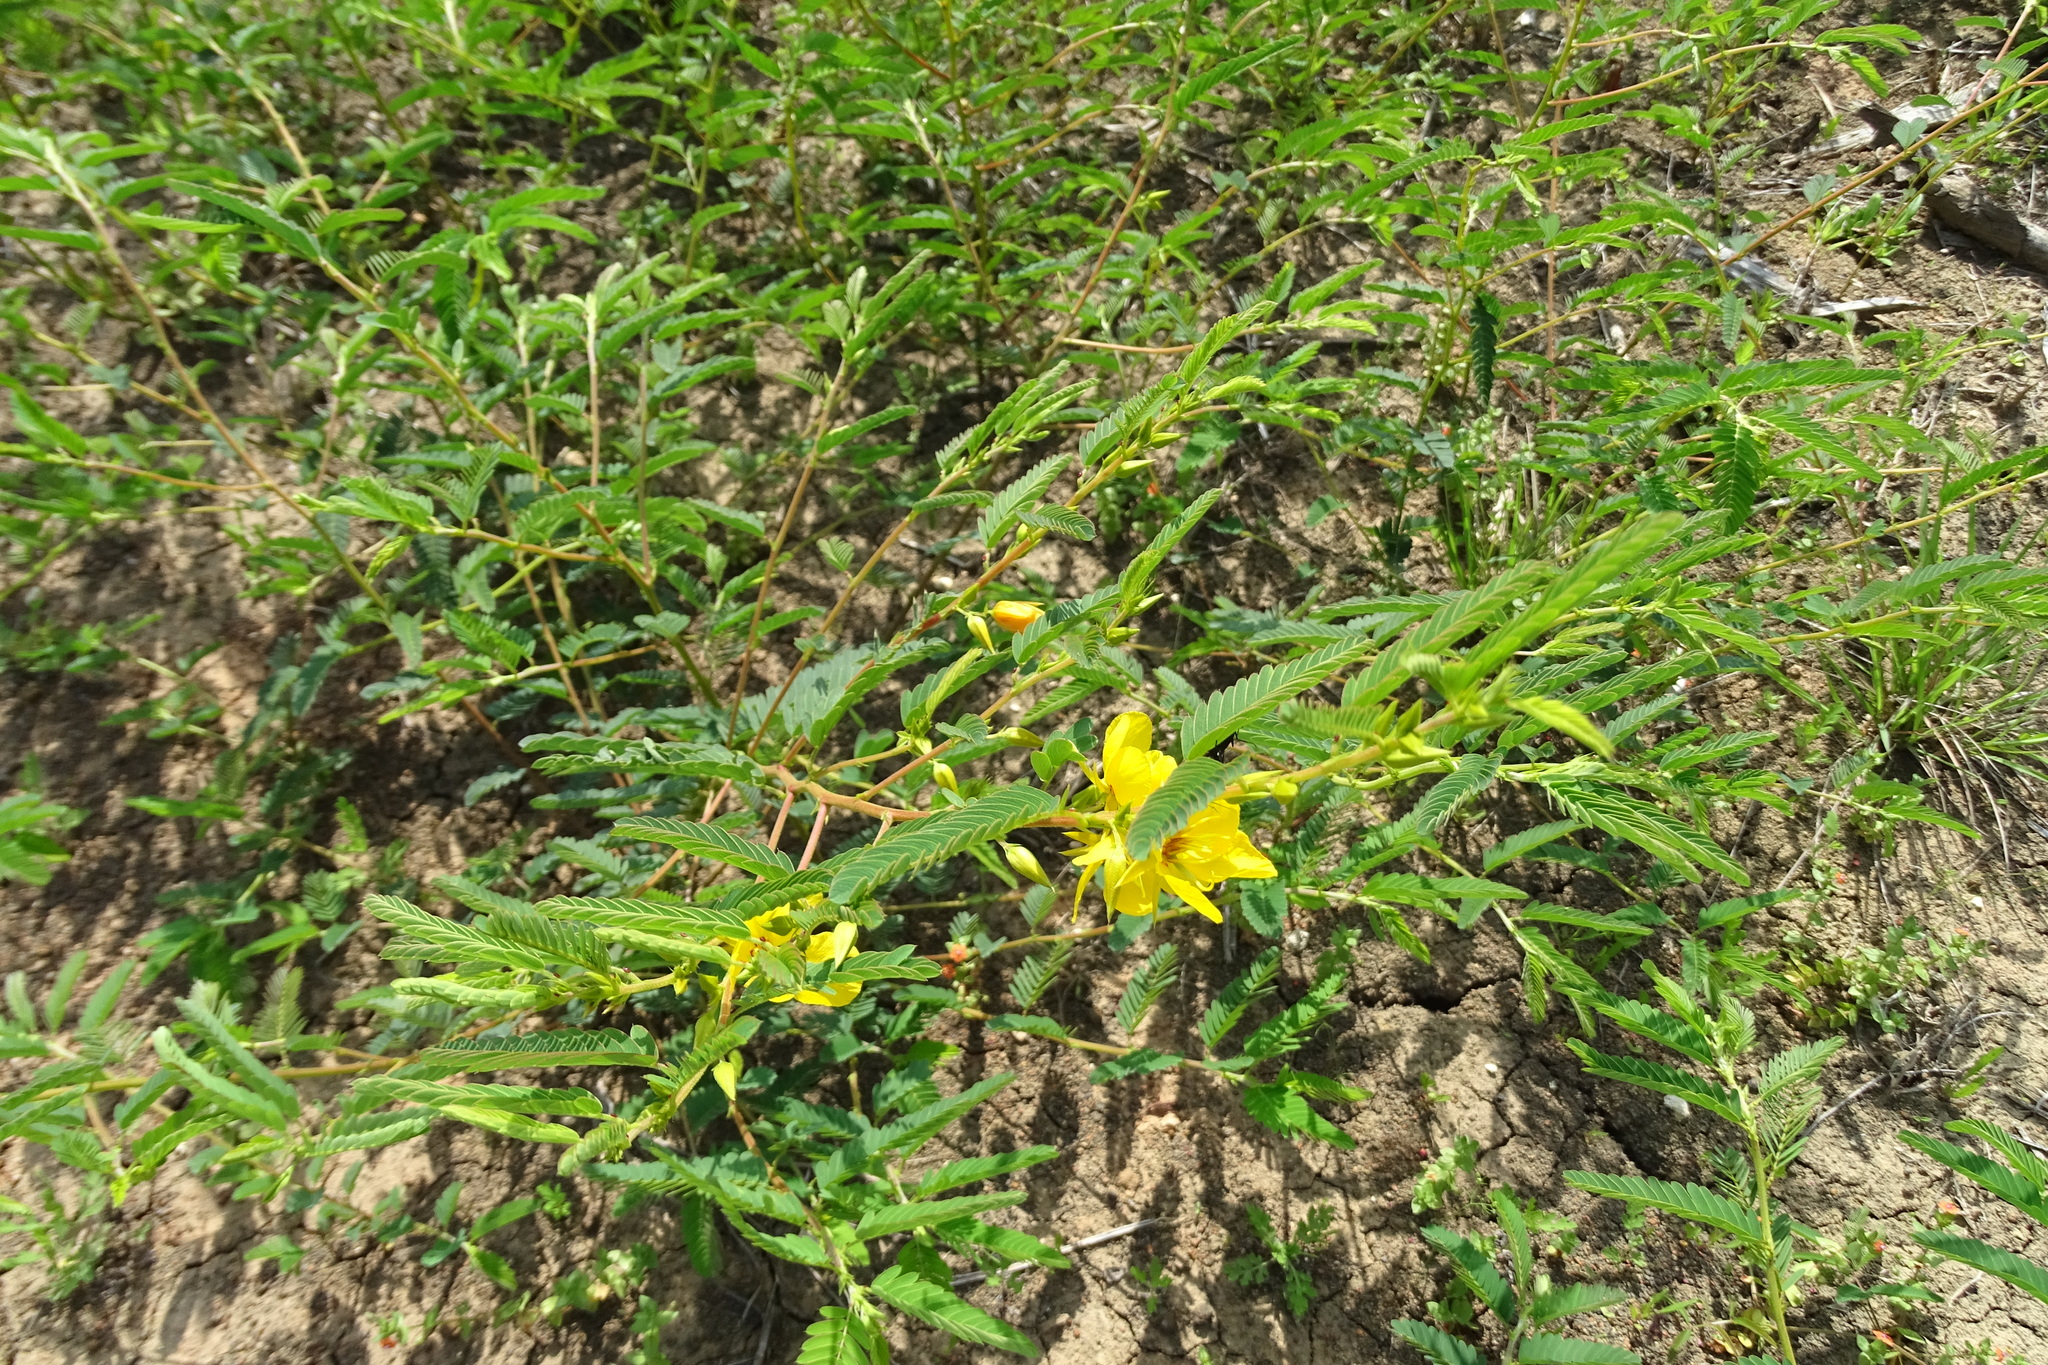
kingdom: Plantae
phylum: Tracheophyta
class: Magnoliopsida
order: Fabales
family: Fabaceae
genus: Chamaecrista
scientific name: Chamaecrista fasciculata
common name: Golden cassia
